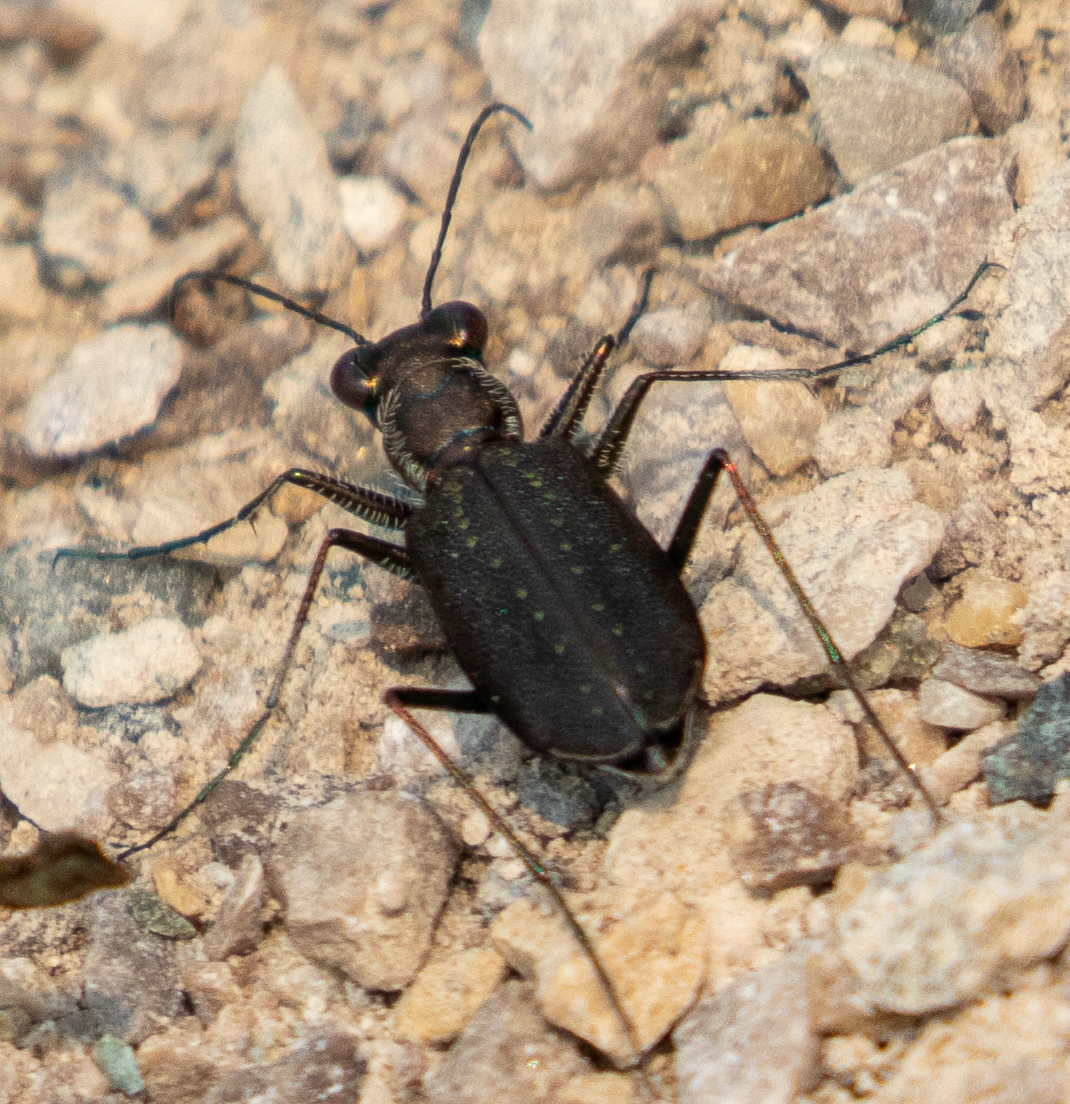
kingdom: Animalia
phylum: Arthropoda
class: Insecta
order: Coleoptera
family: Carabidae
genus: Cicindela
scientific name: Cicindela punctulata
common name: Punctured tiger beetle
